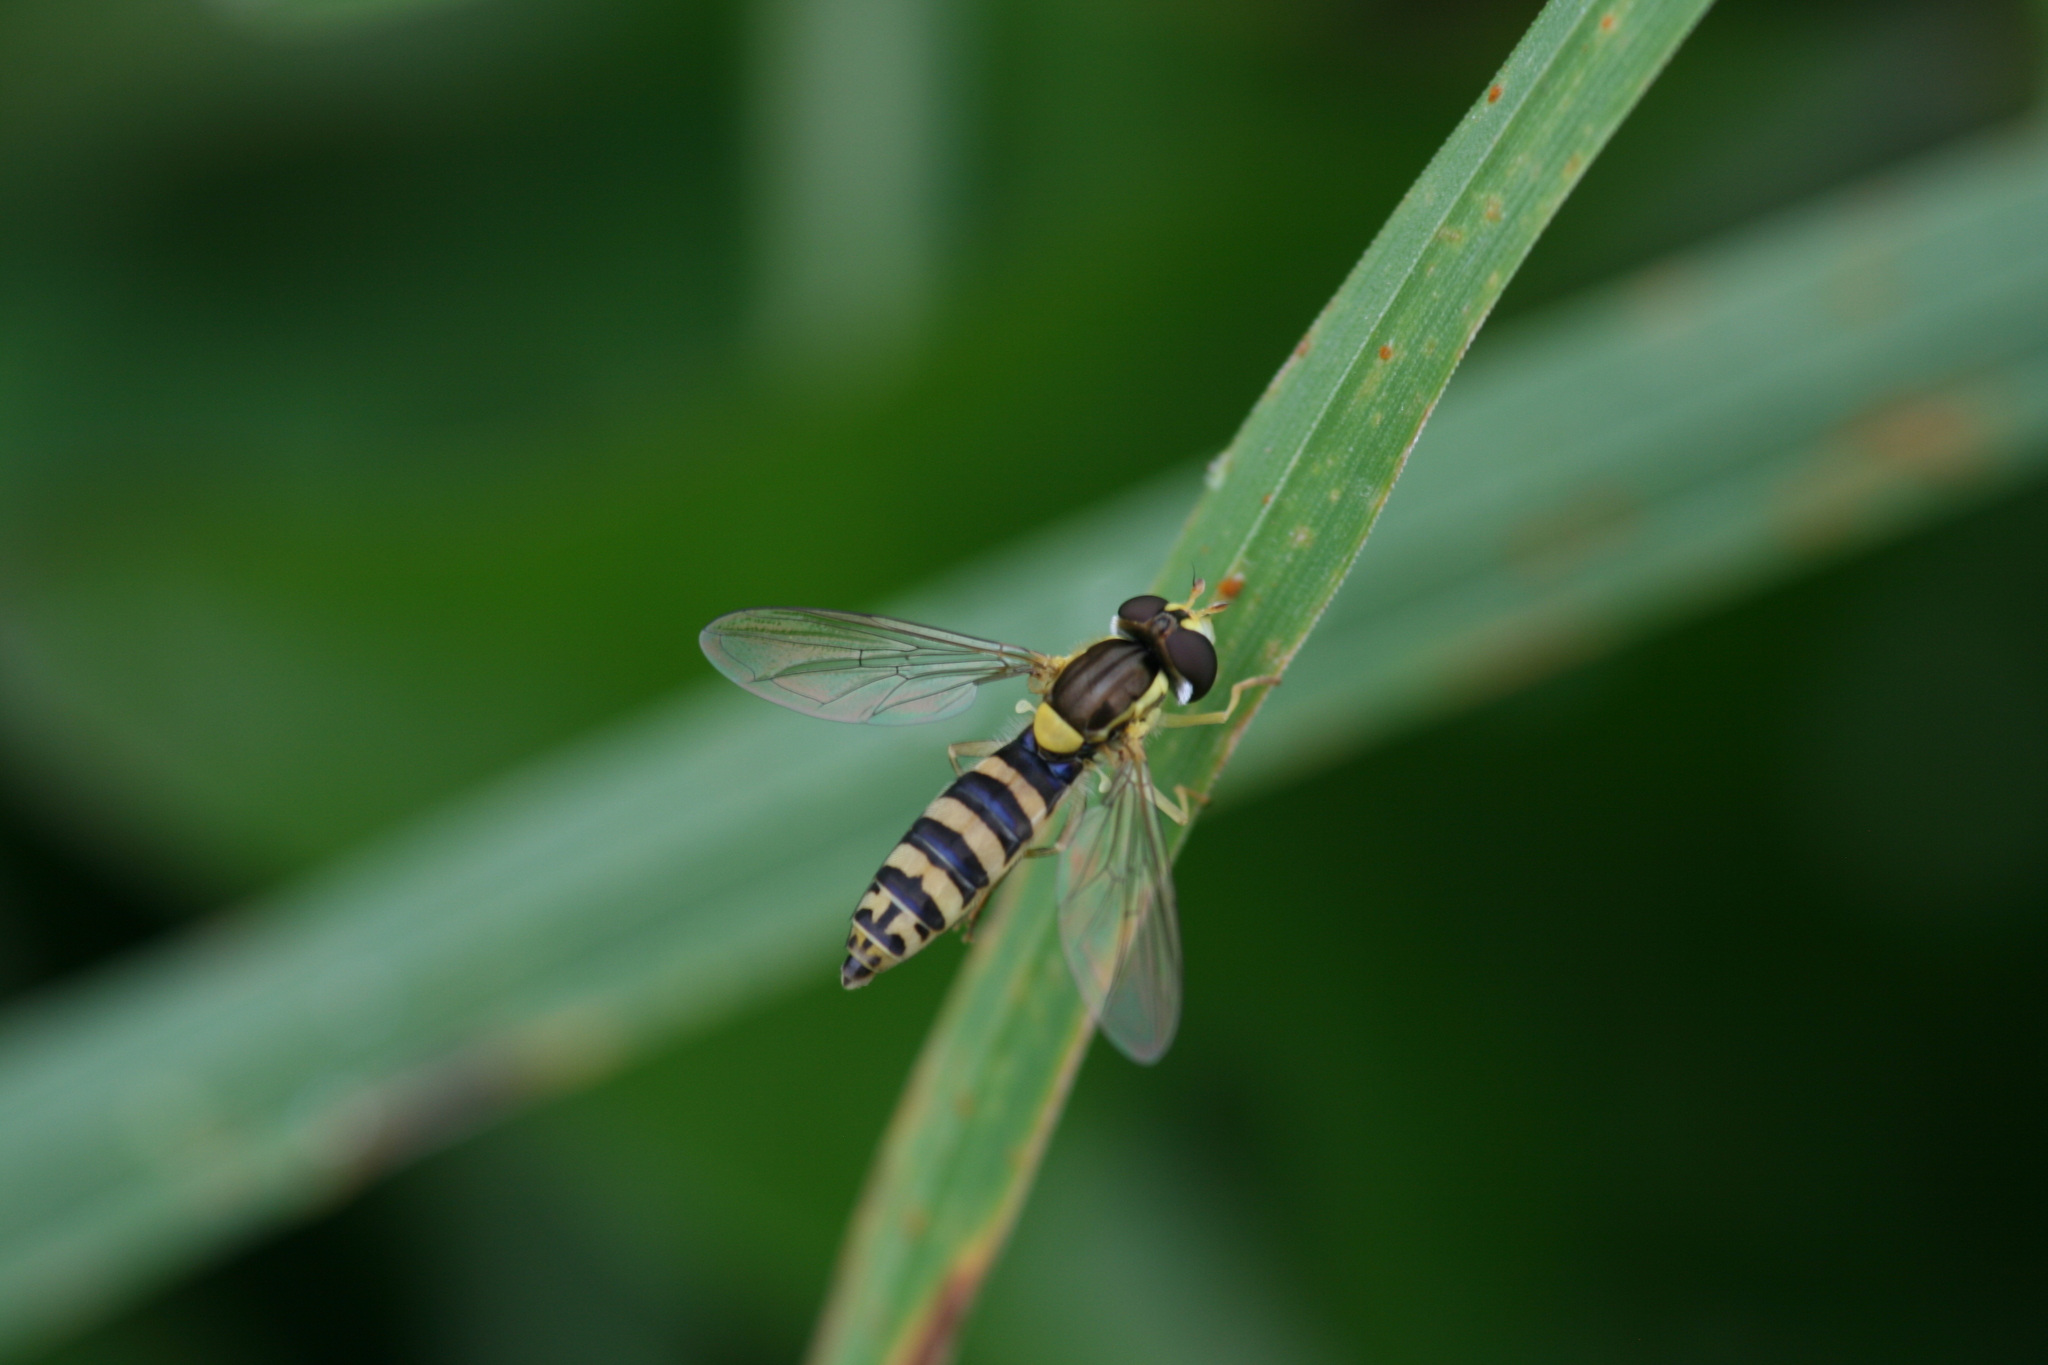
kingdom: Animalia
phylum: Arthropoda
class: Insecta
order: Diptera
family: Syrphidae
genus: Sphaerophoria
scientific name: Sphaerophoria
